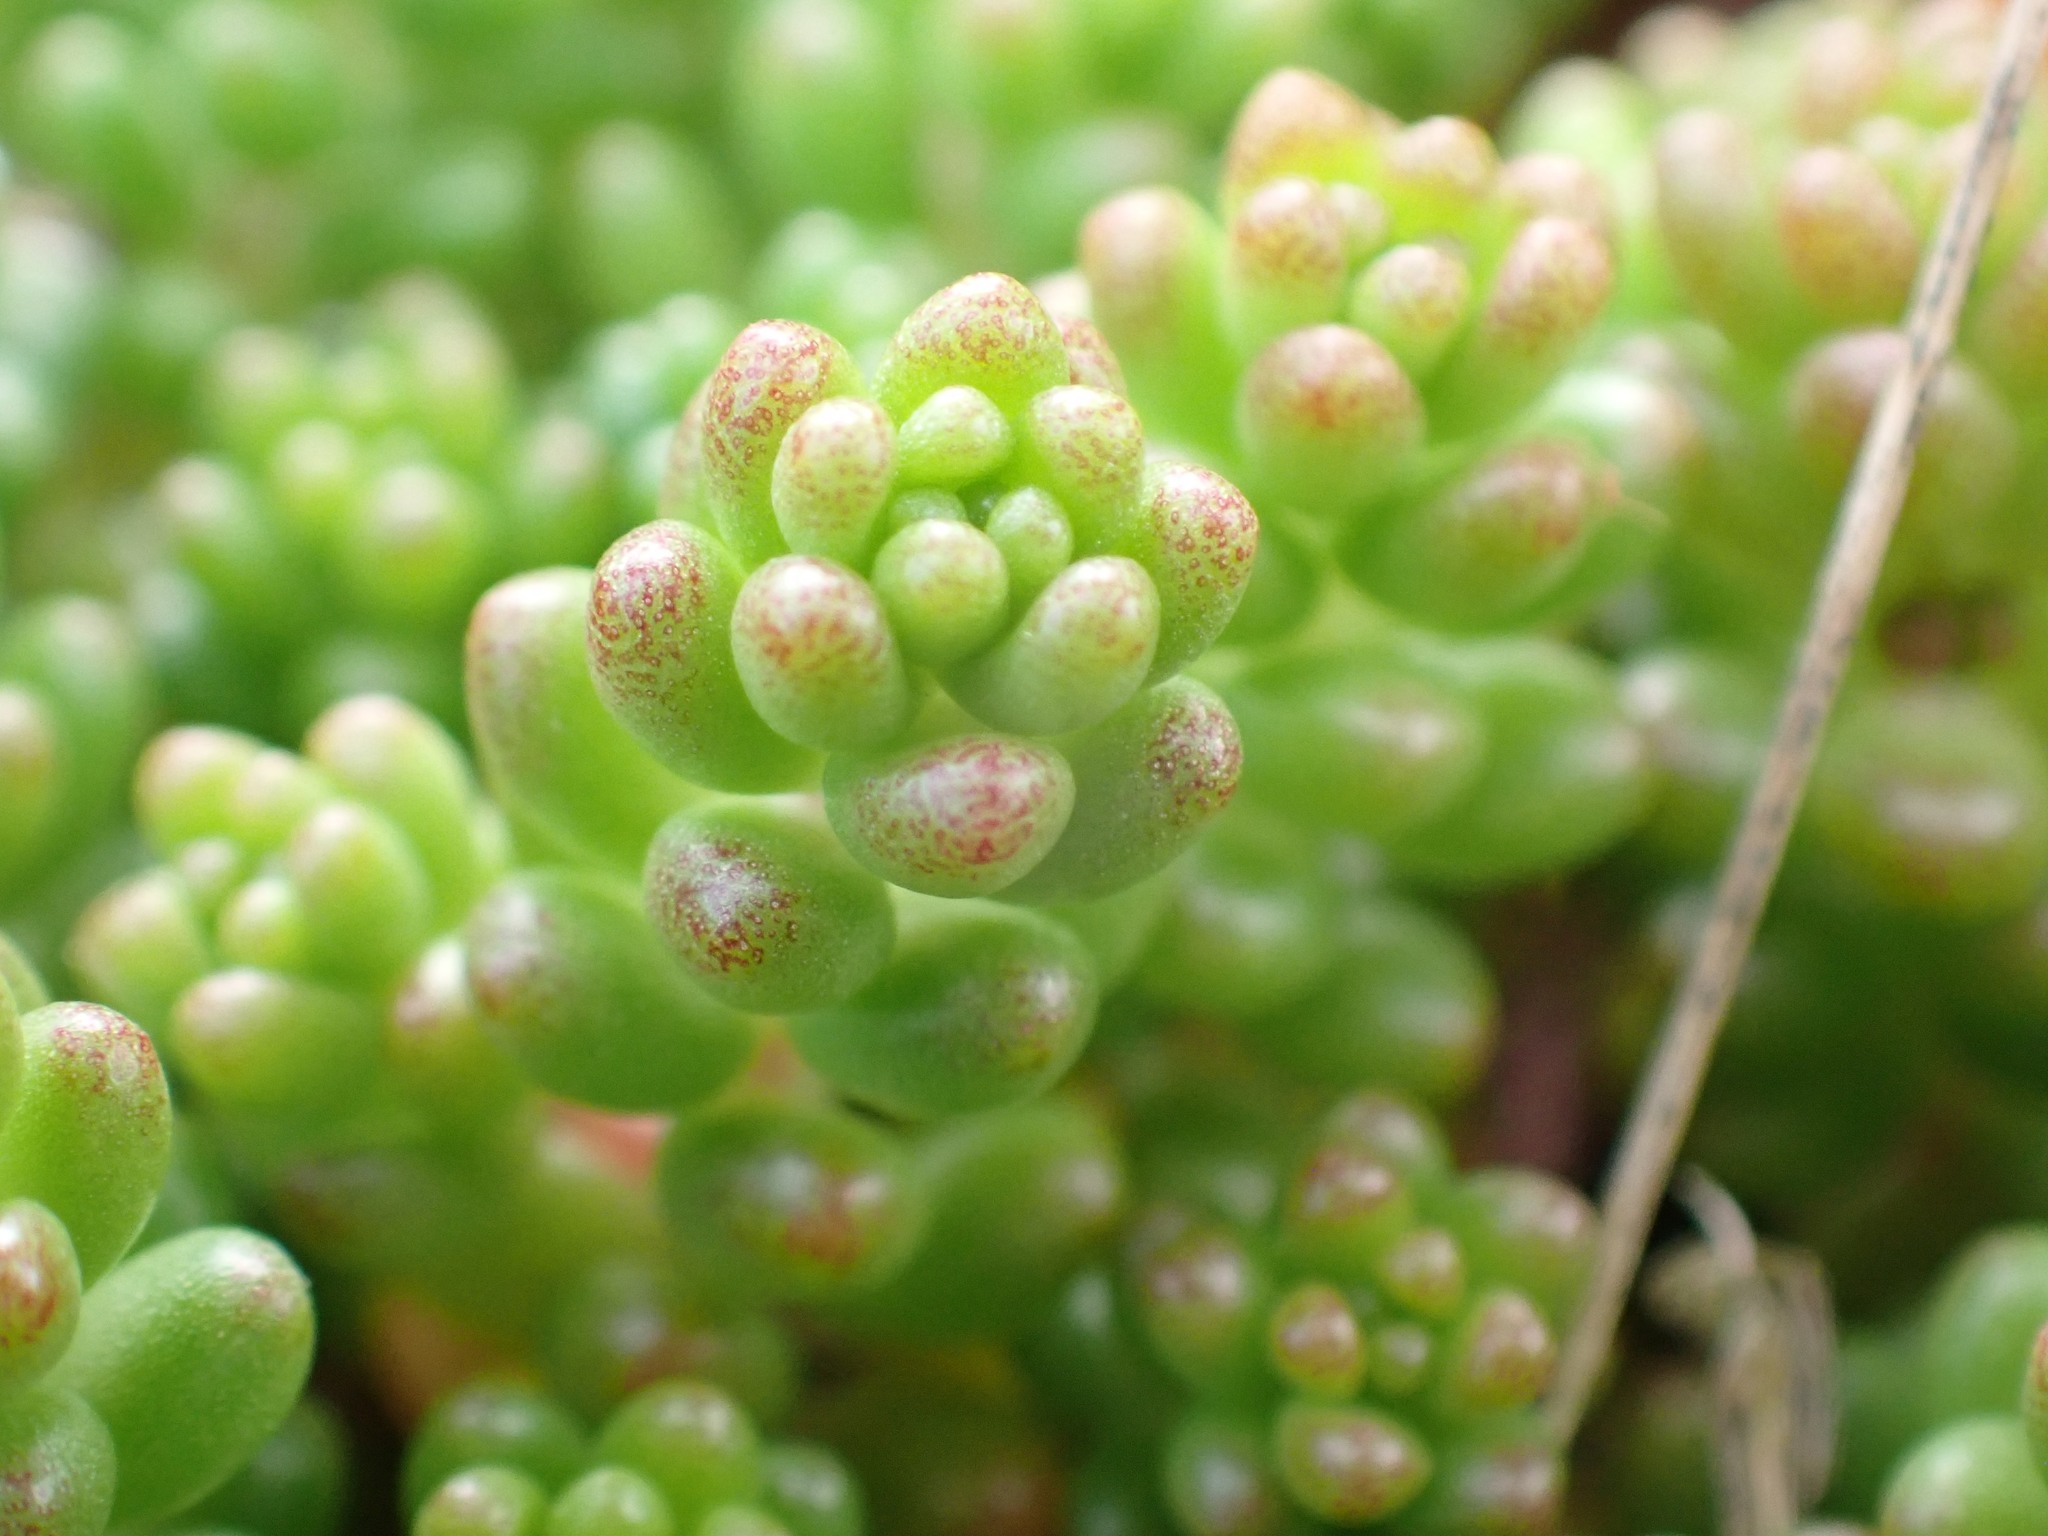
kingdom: Plantae
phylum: Tracheophyta
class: Magnoliopsida
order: Saxifragales
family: Crassulaceae
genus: Sedum
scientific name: Sedum album
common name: White stonecrop
